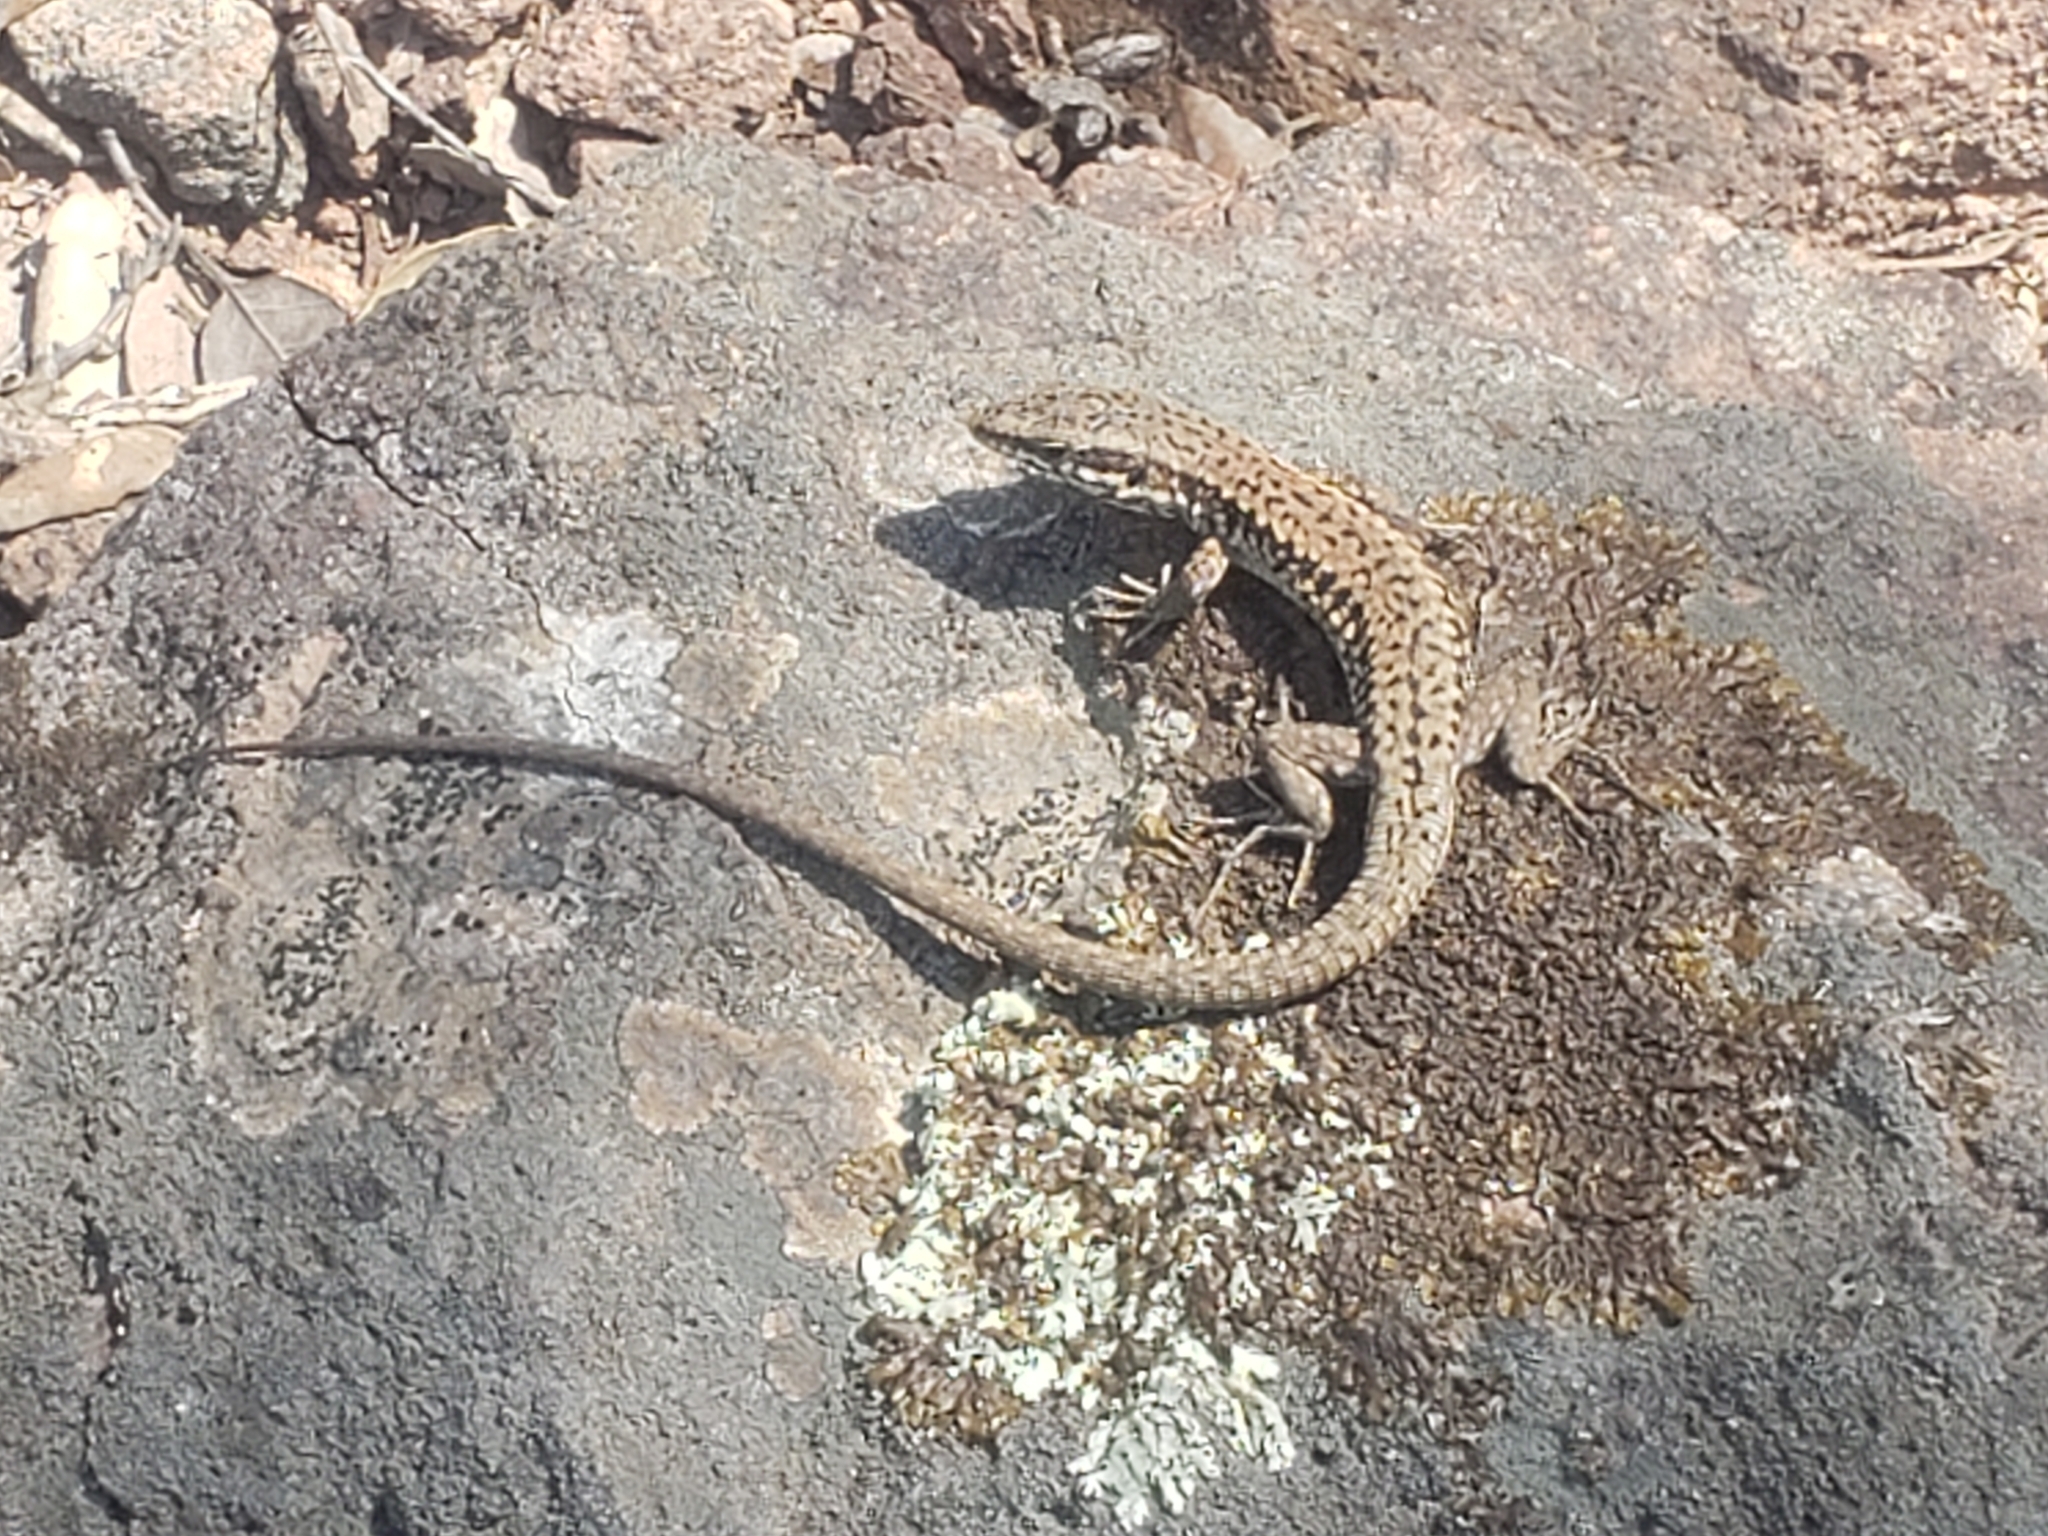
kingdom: Animalia
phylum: Chordata
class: Squamata
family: Lacertidae
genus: Podarcis
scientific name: Podarcis muralis
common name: Common wall lizard
